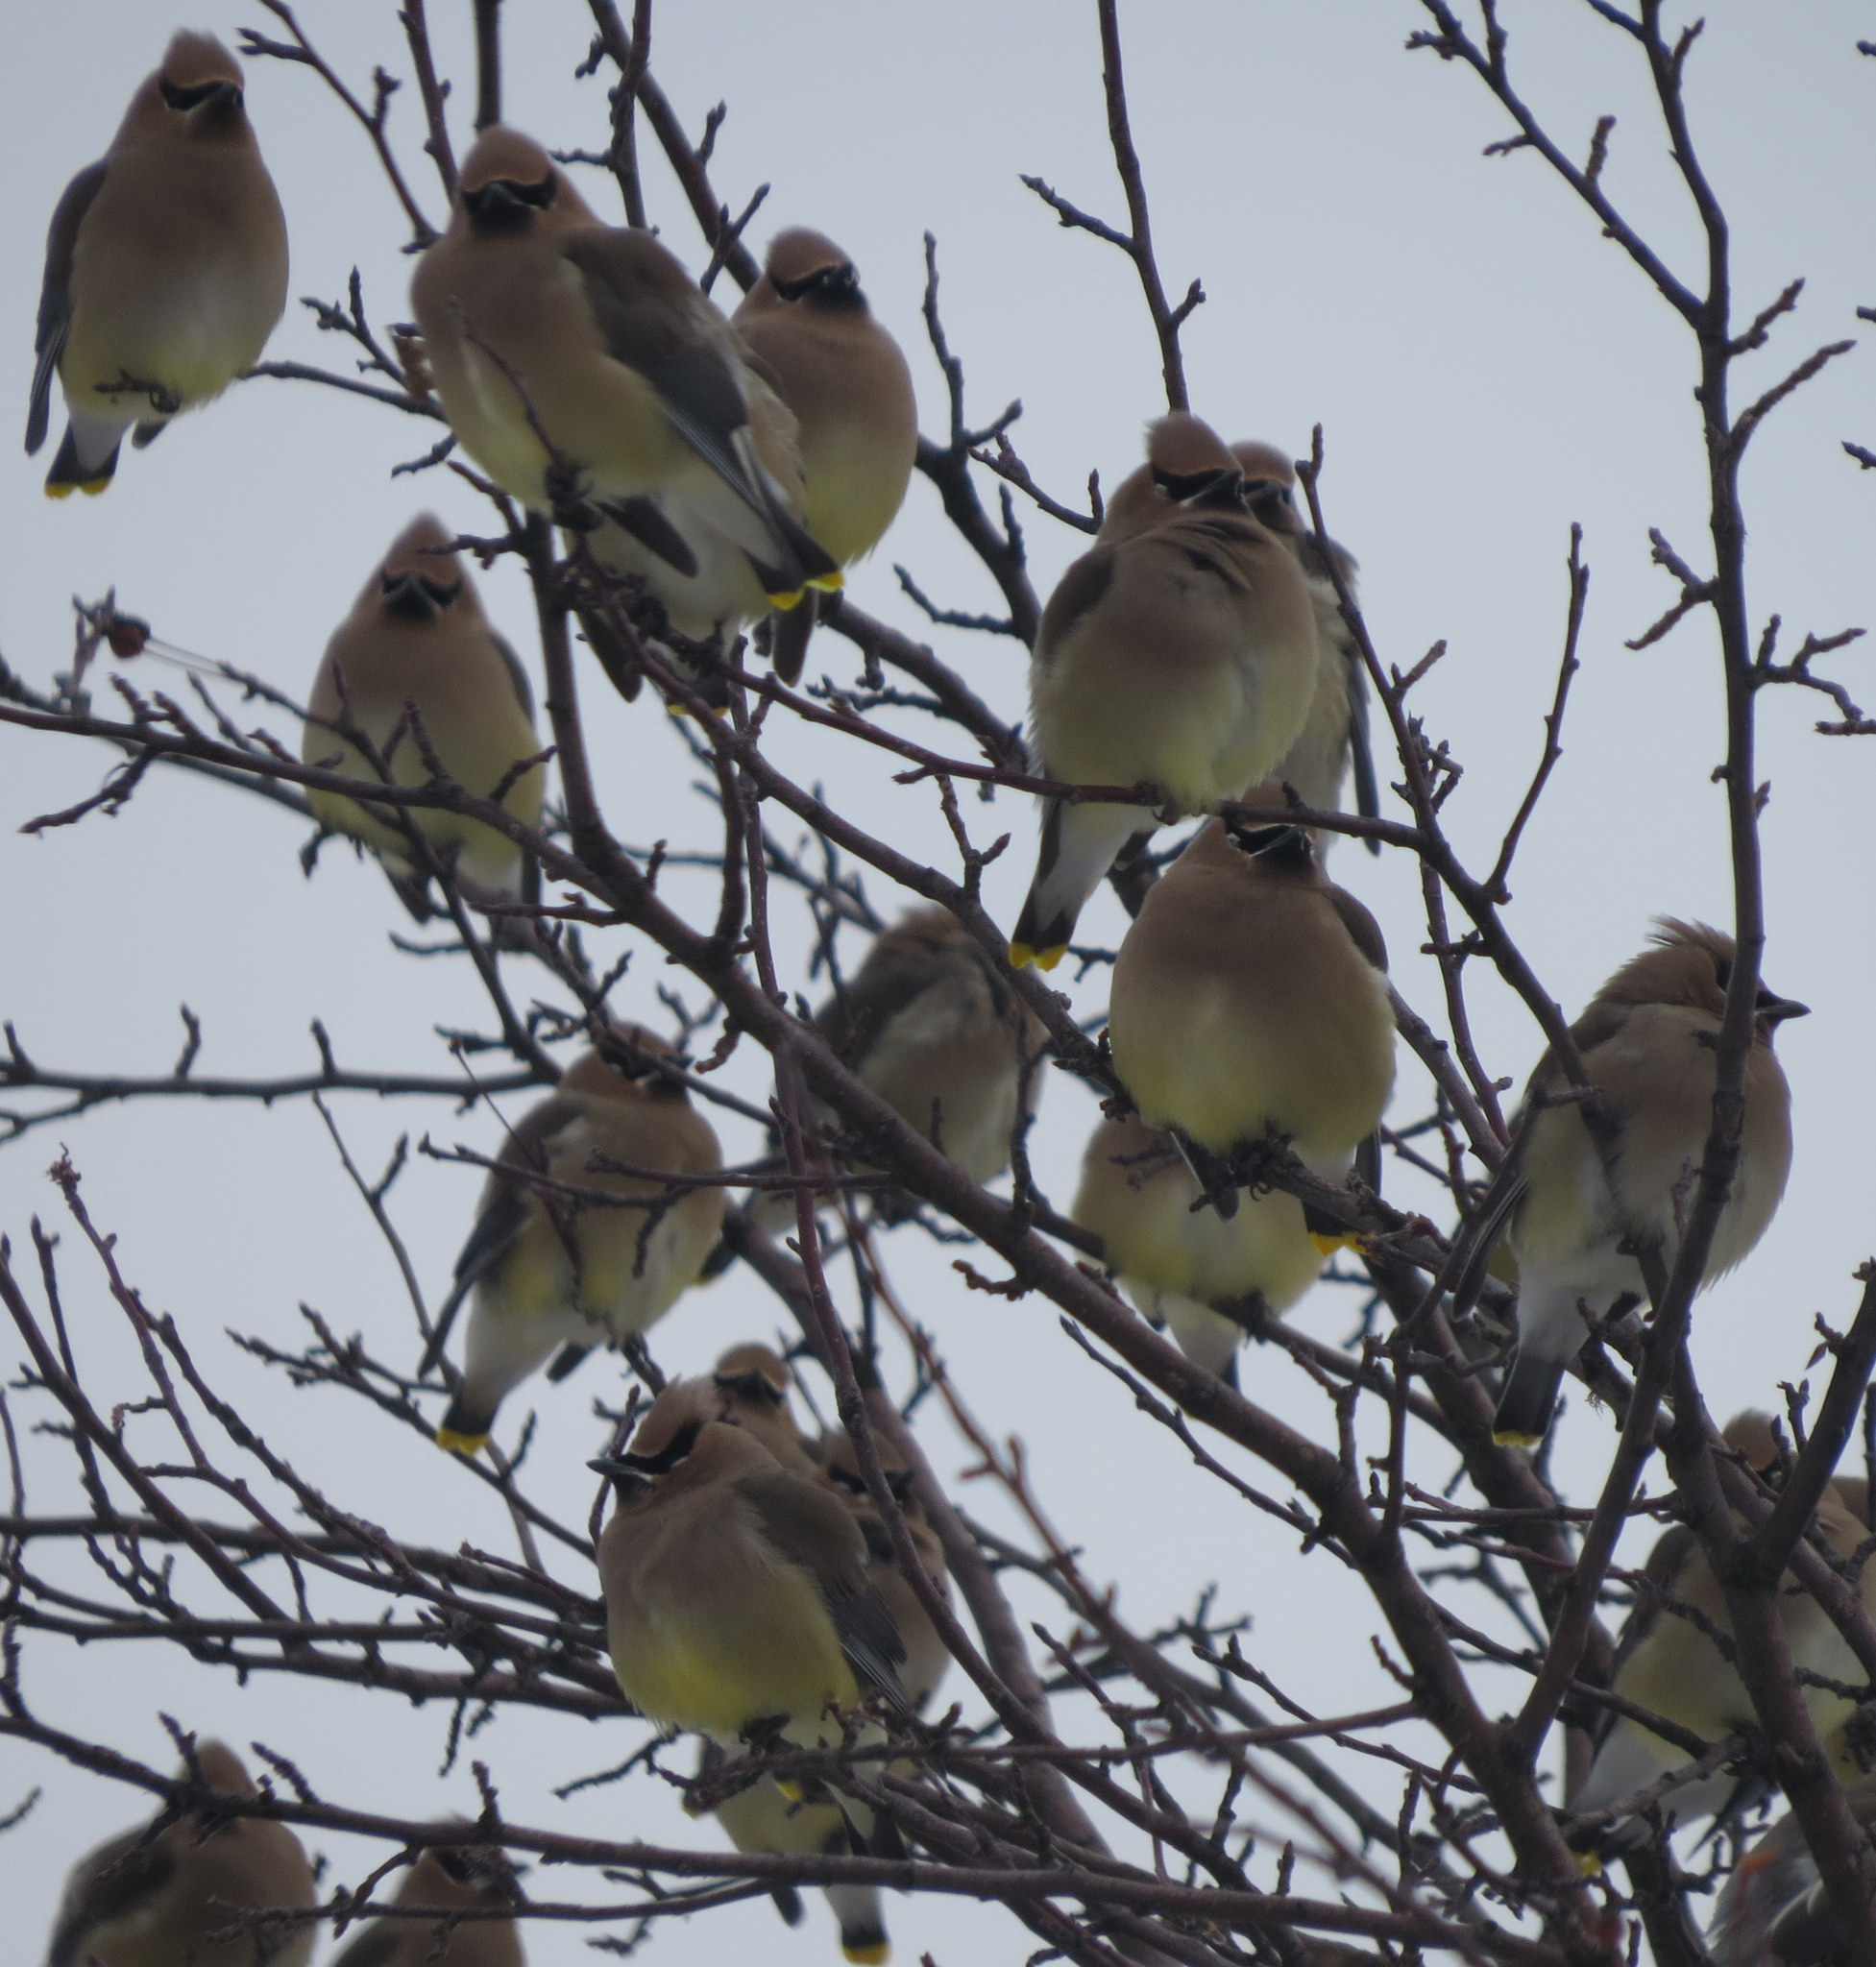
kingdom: Animalia
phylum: Chordata
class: Aves
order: Passeriformes
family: Bombycillidae
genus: Bombycilla
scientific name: Bombycilla cedrorum
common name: Cedar waxwing
